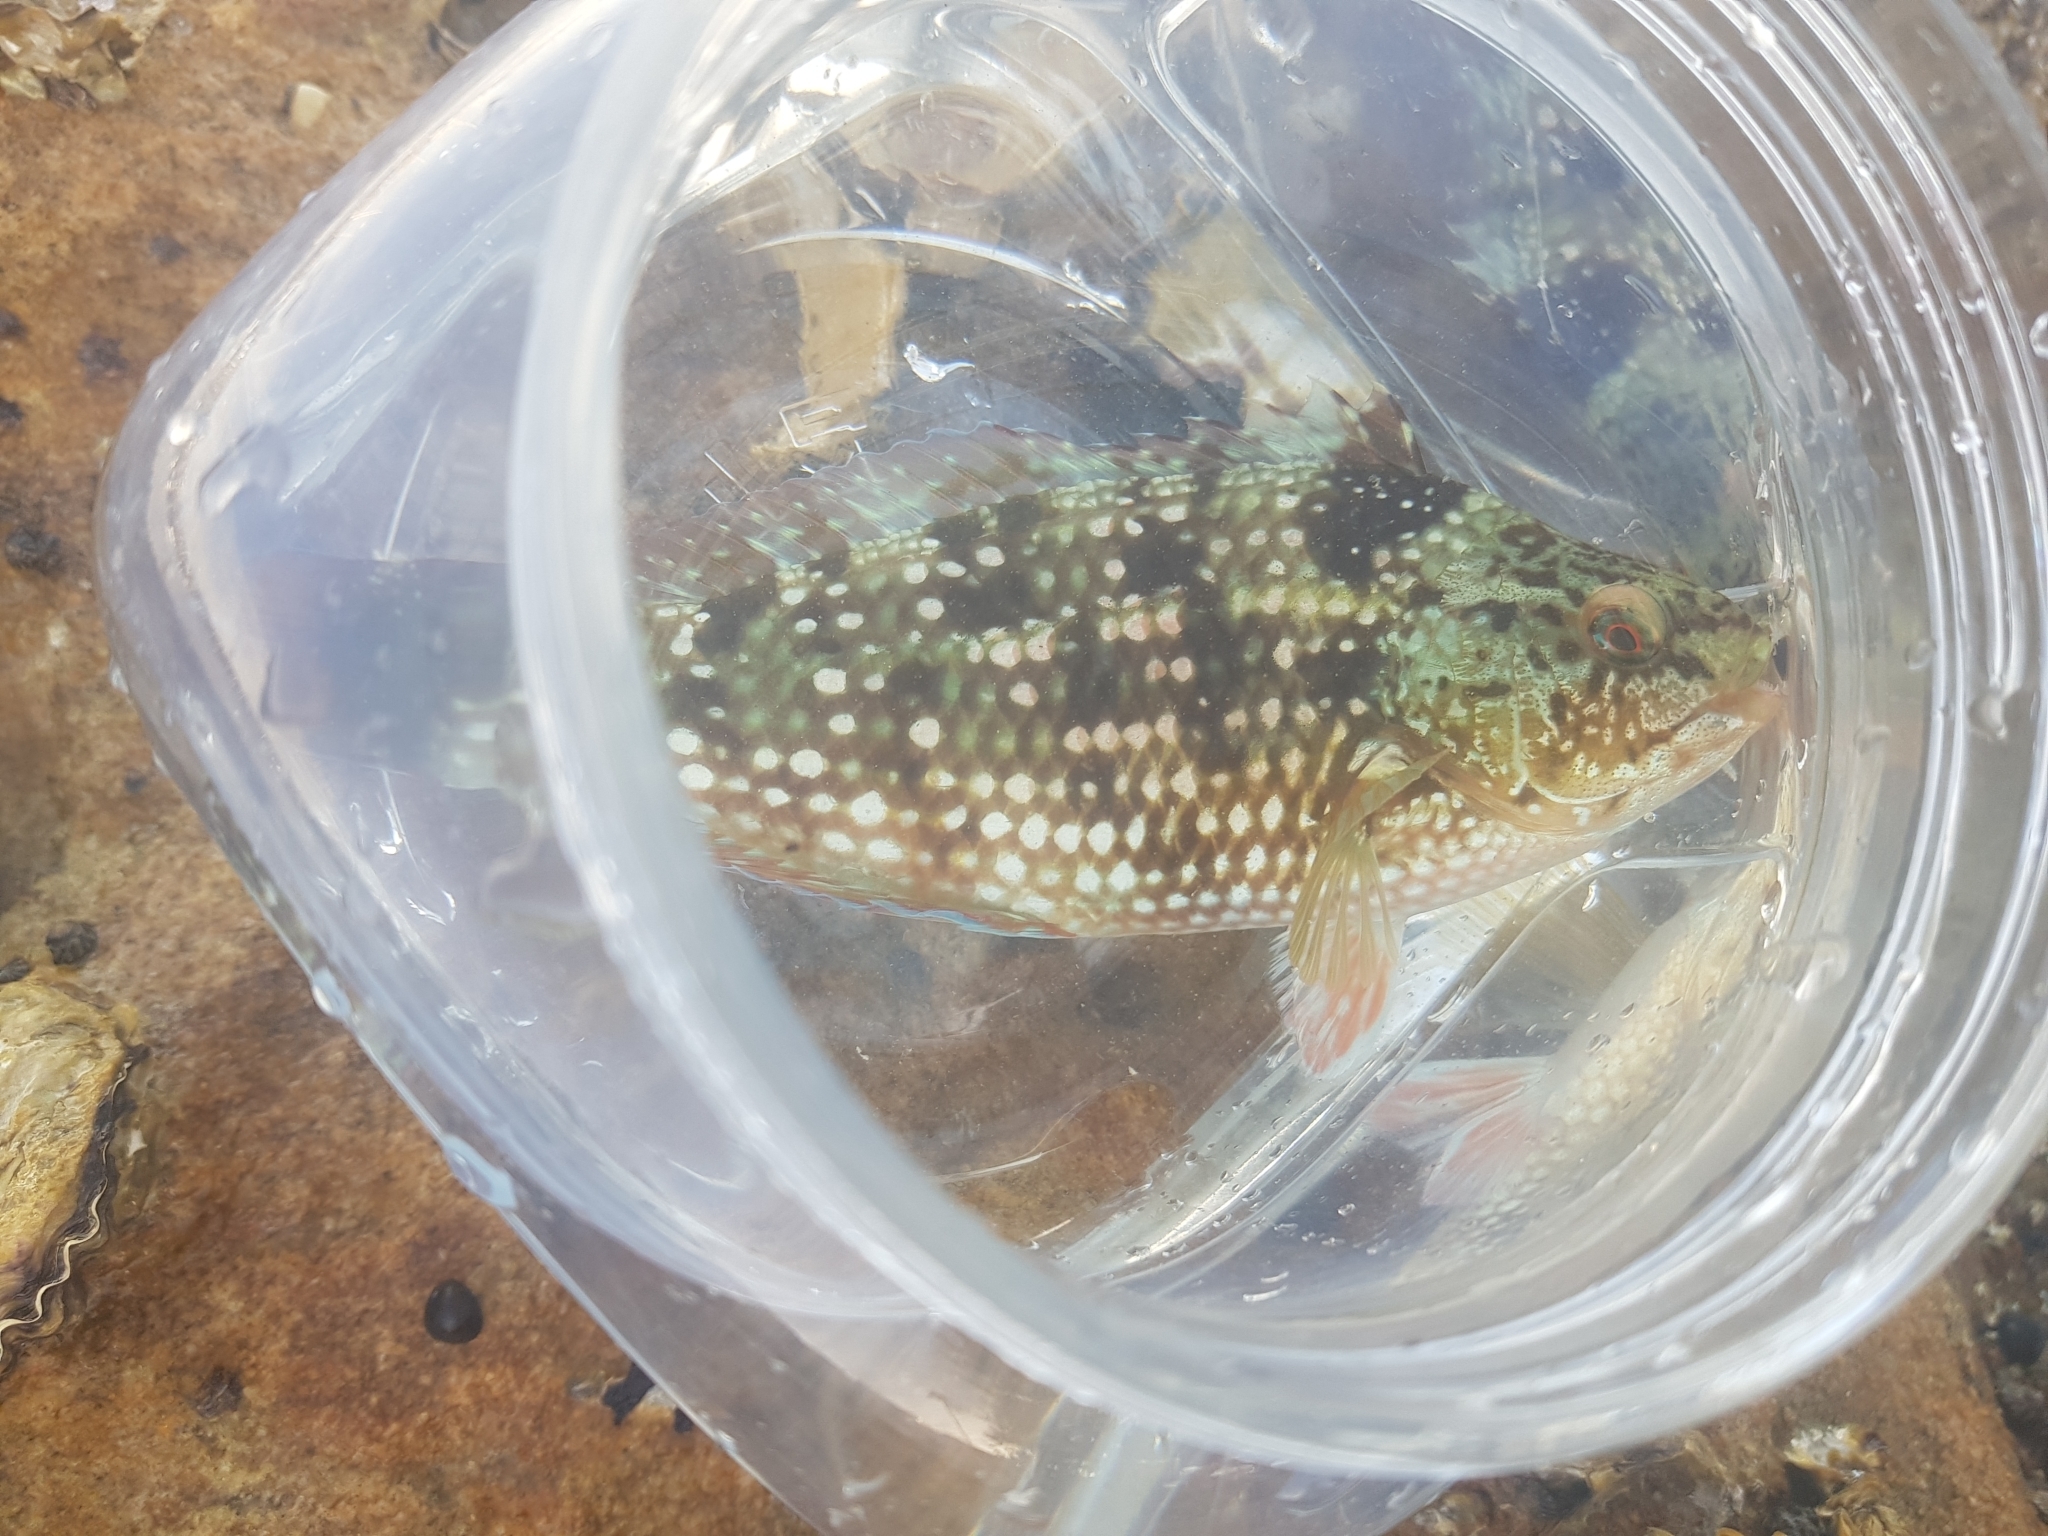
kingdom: Animalia
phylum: Chordata
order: Perciformes
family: Labridae
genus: Notolabrus
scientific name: Notolabrus gymnogenis
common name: Crimson banded wrasse
